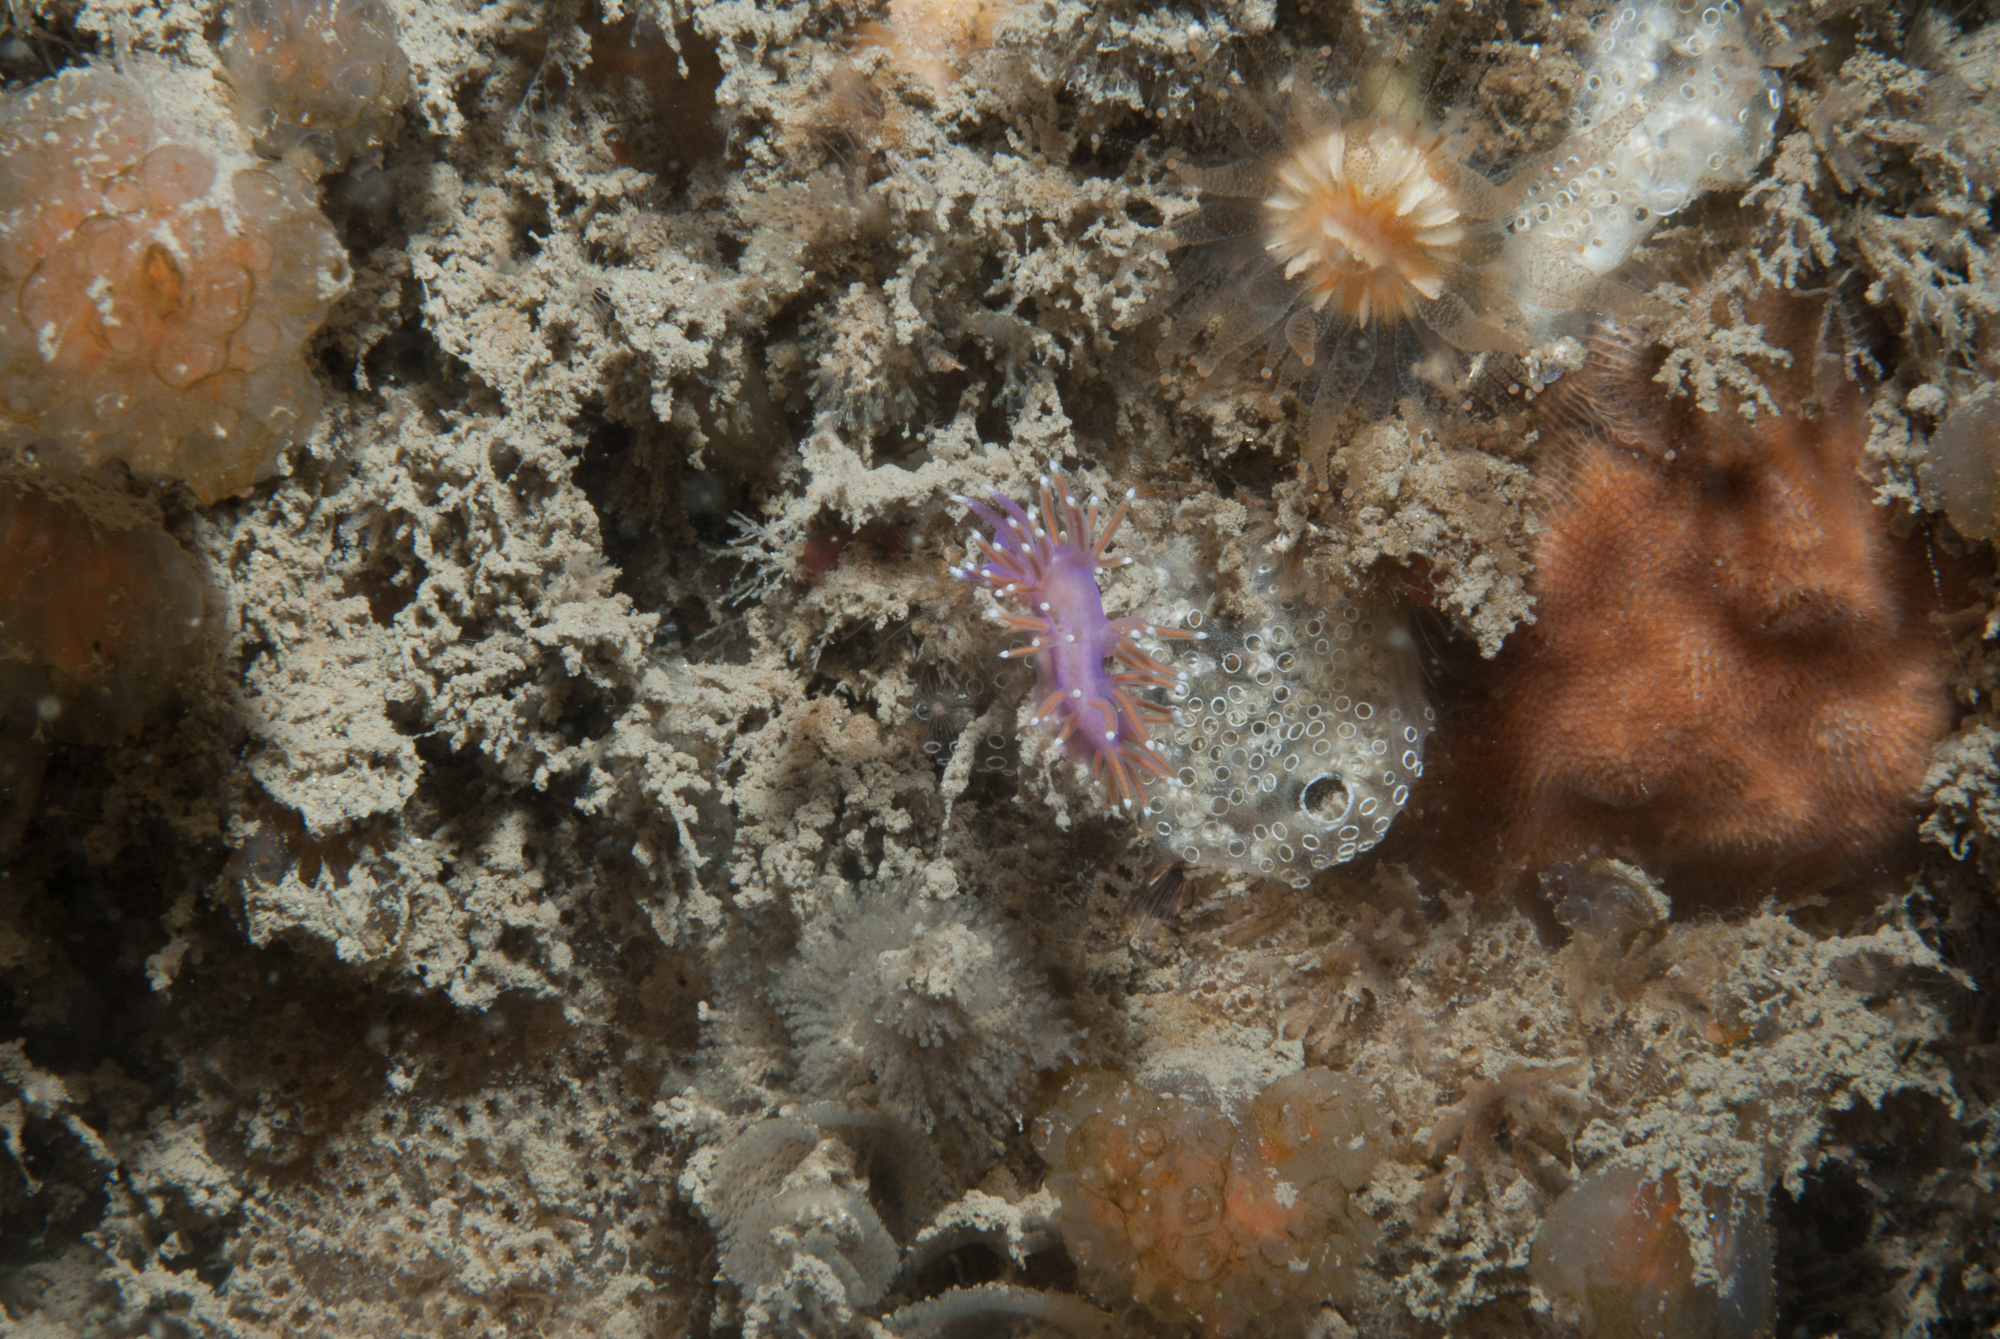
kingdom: Animalia
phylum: Mollusca
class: Gastropoda
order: Nudibranchia
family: Flabellinidae
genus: Edmundsella
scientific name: Edmundsella pedata
